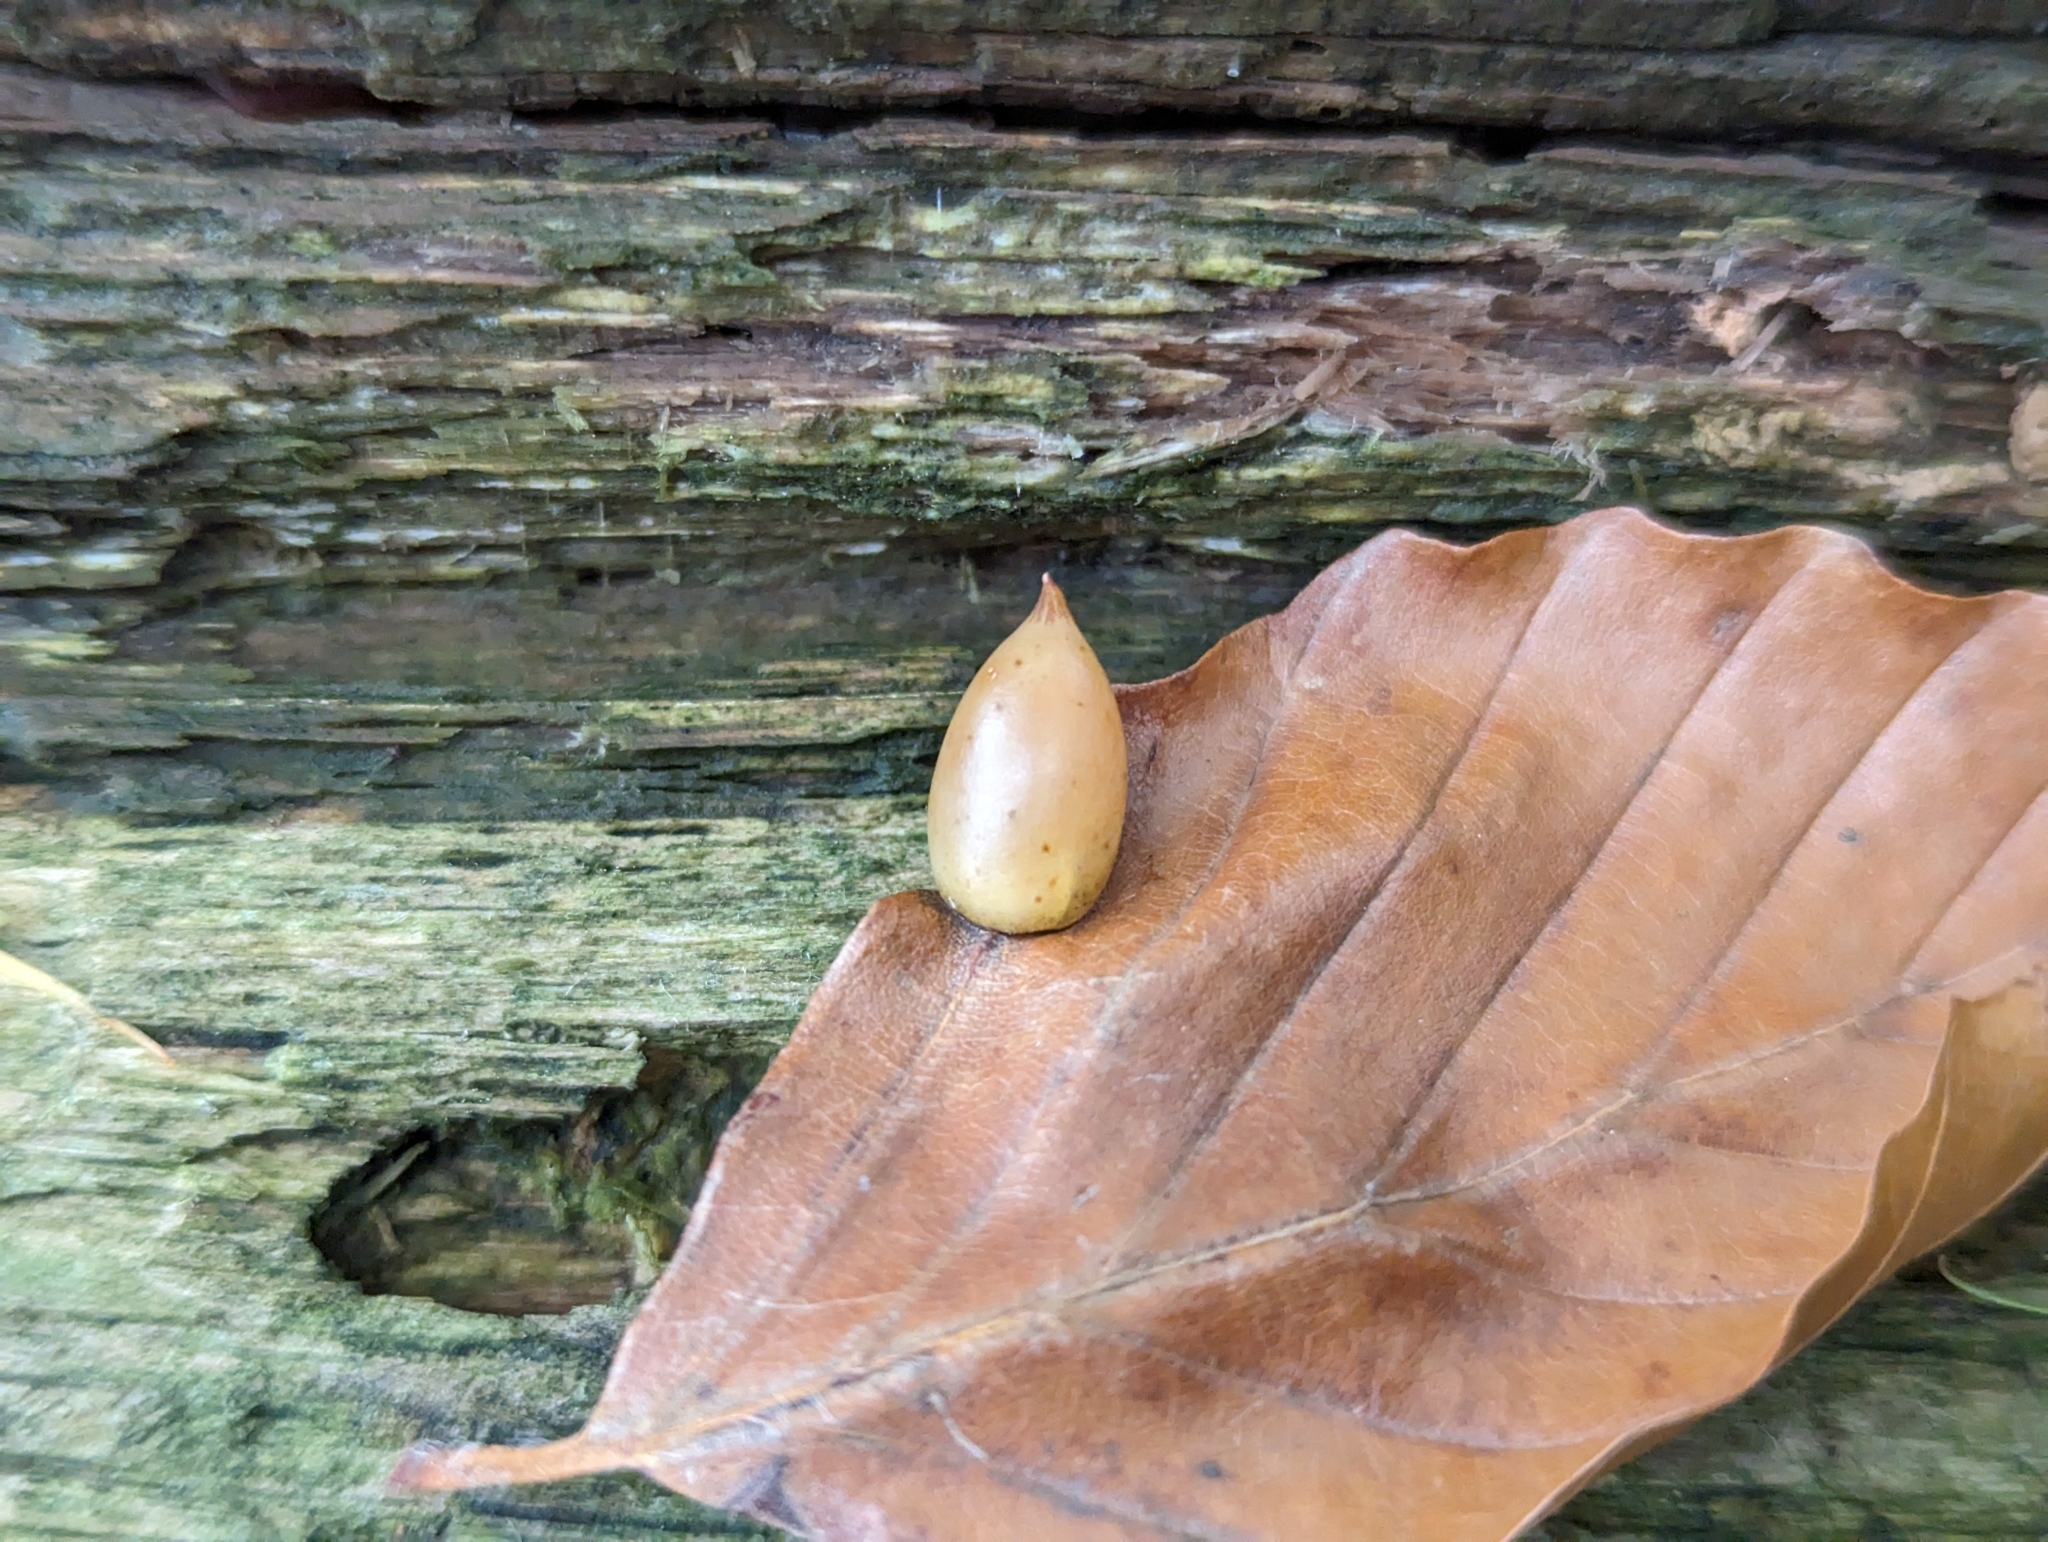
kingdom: Animalia
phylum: Arthropoda
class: Insecta
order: Diptera
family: Cecidomyiidae
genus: Mikiola
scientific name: Mikiola fagi
